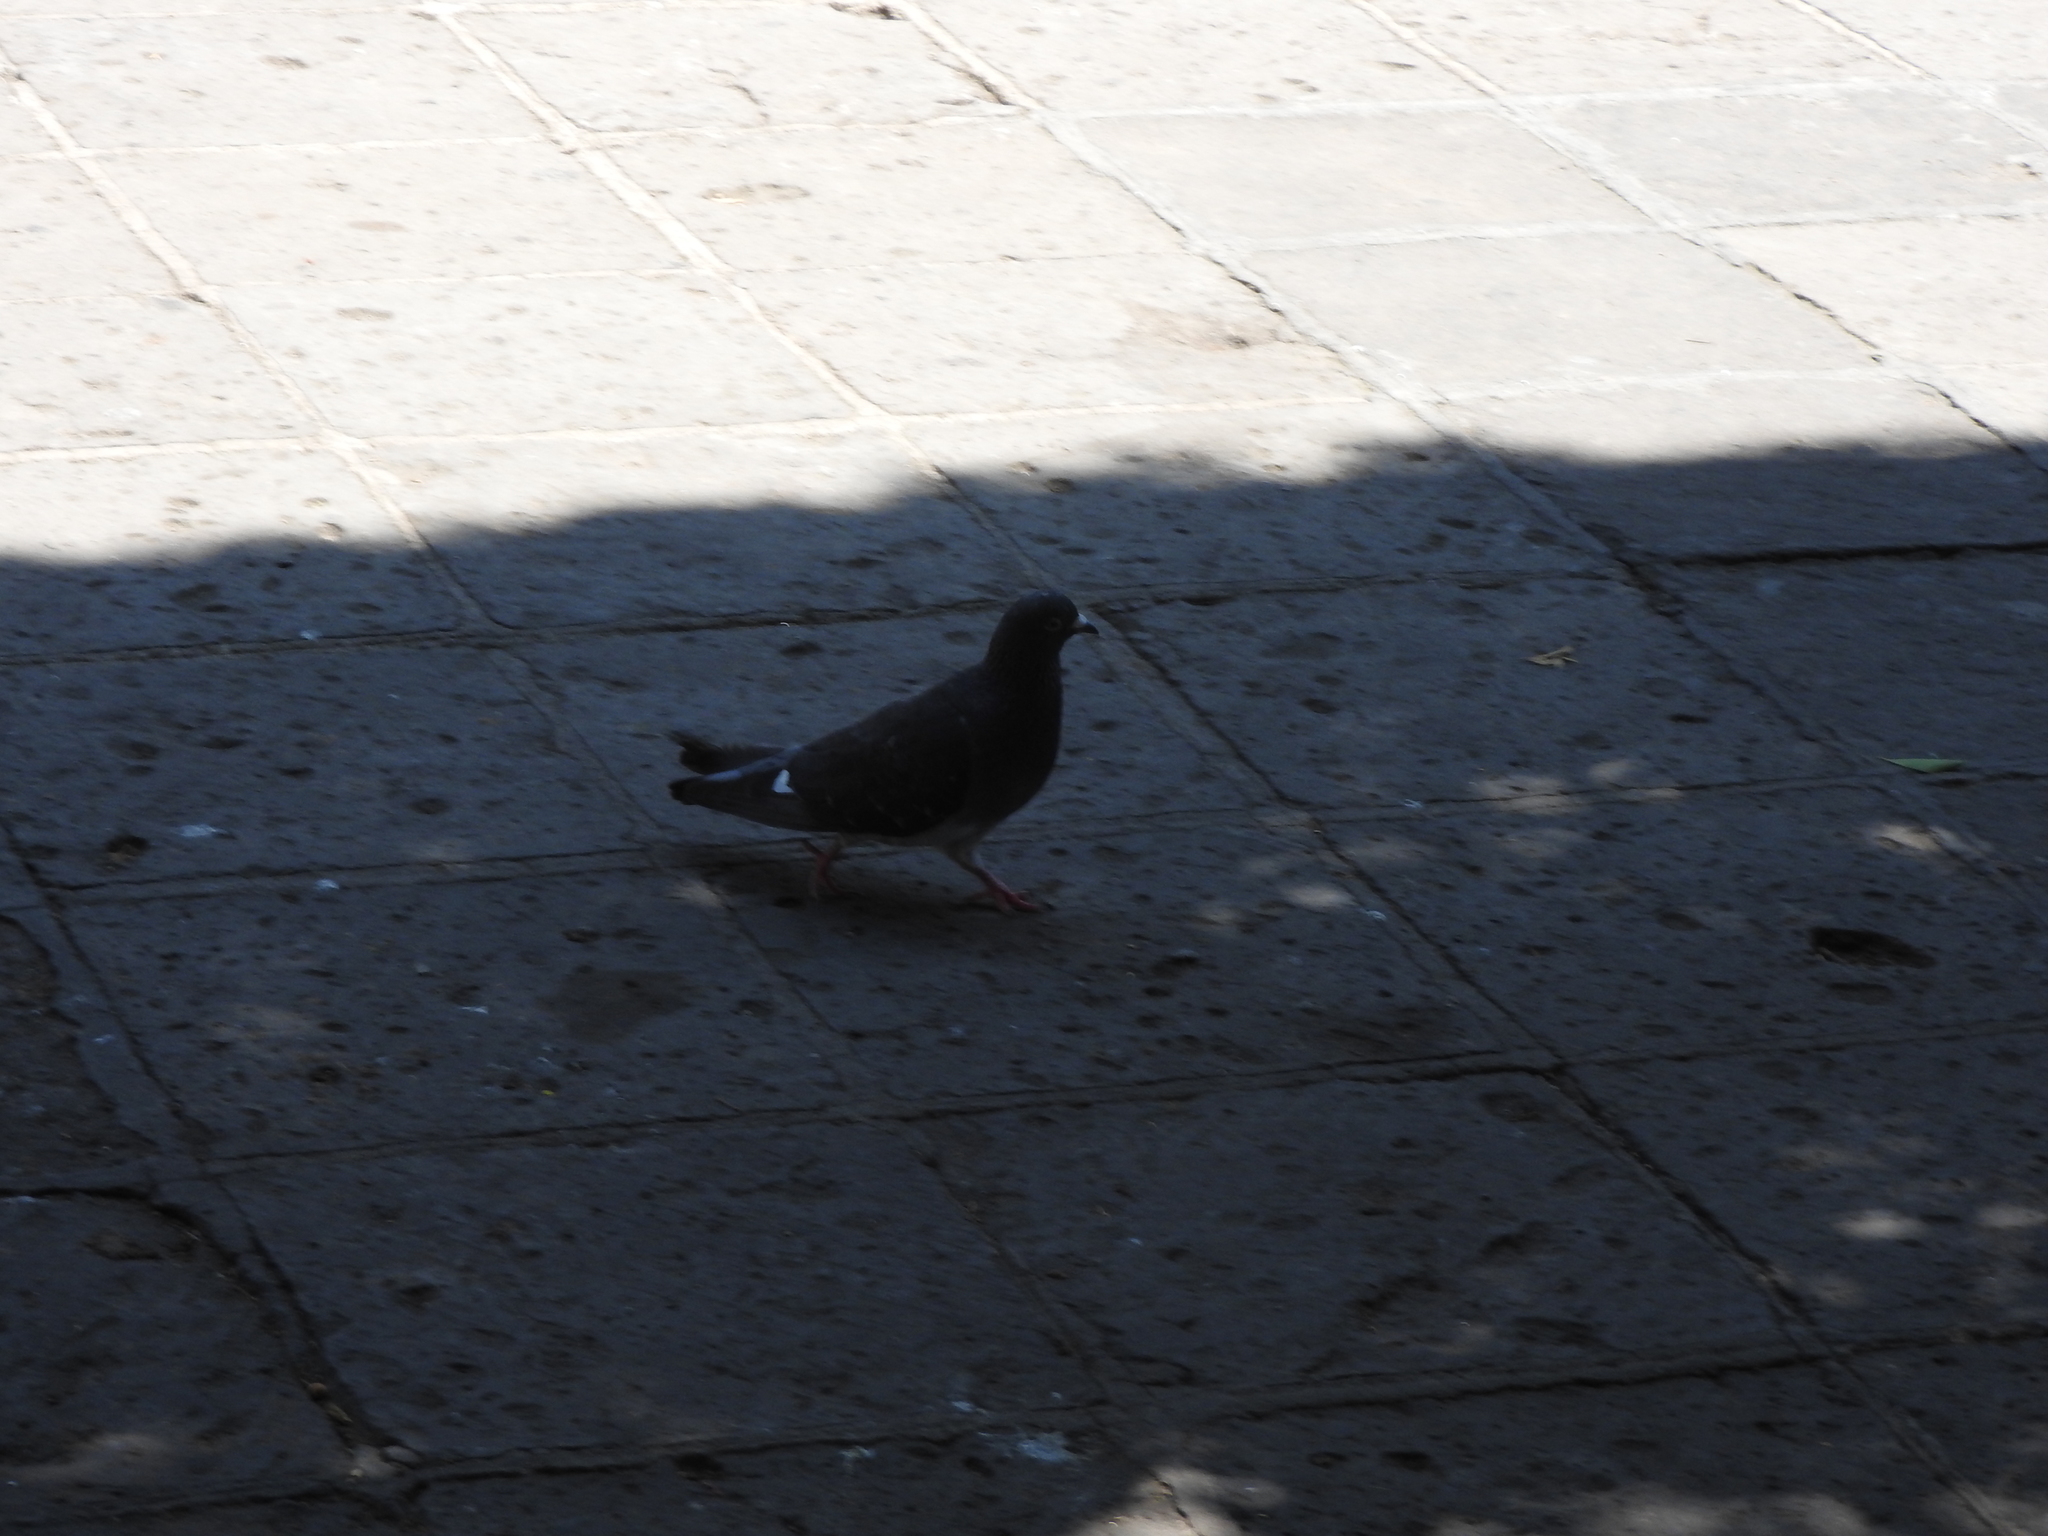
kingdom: Animalia
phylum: Chordata
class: Aves
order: Columbiformes
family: Columbidae
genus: Columba
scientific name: Columba livia
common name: Rock pigeon
